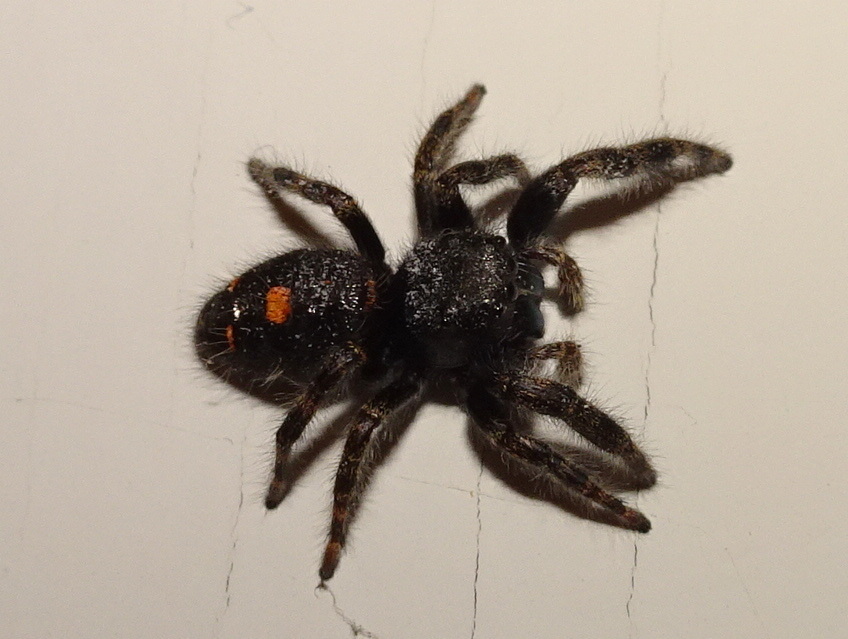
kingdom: Animalia
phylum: Arthropoda
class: Arachnida
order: Araneae
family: Salticidae
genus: Phidippus
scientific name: Phidippus audax
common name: Bold jumper
